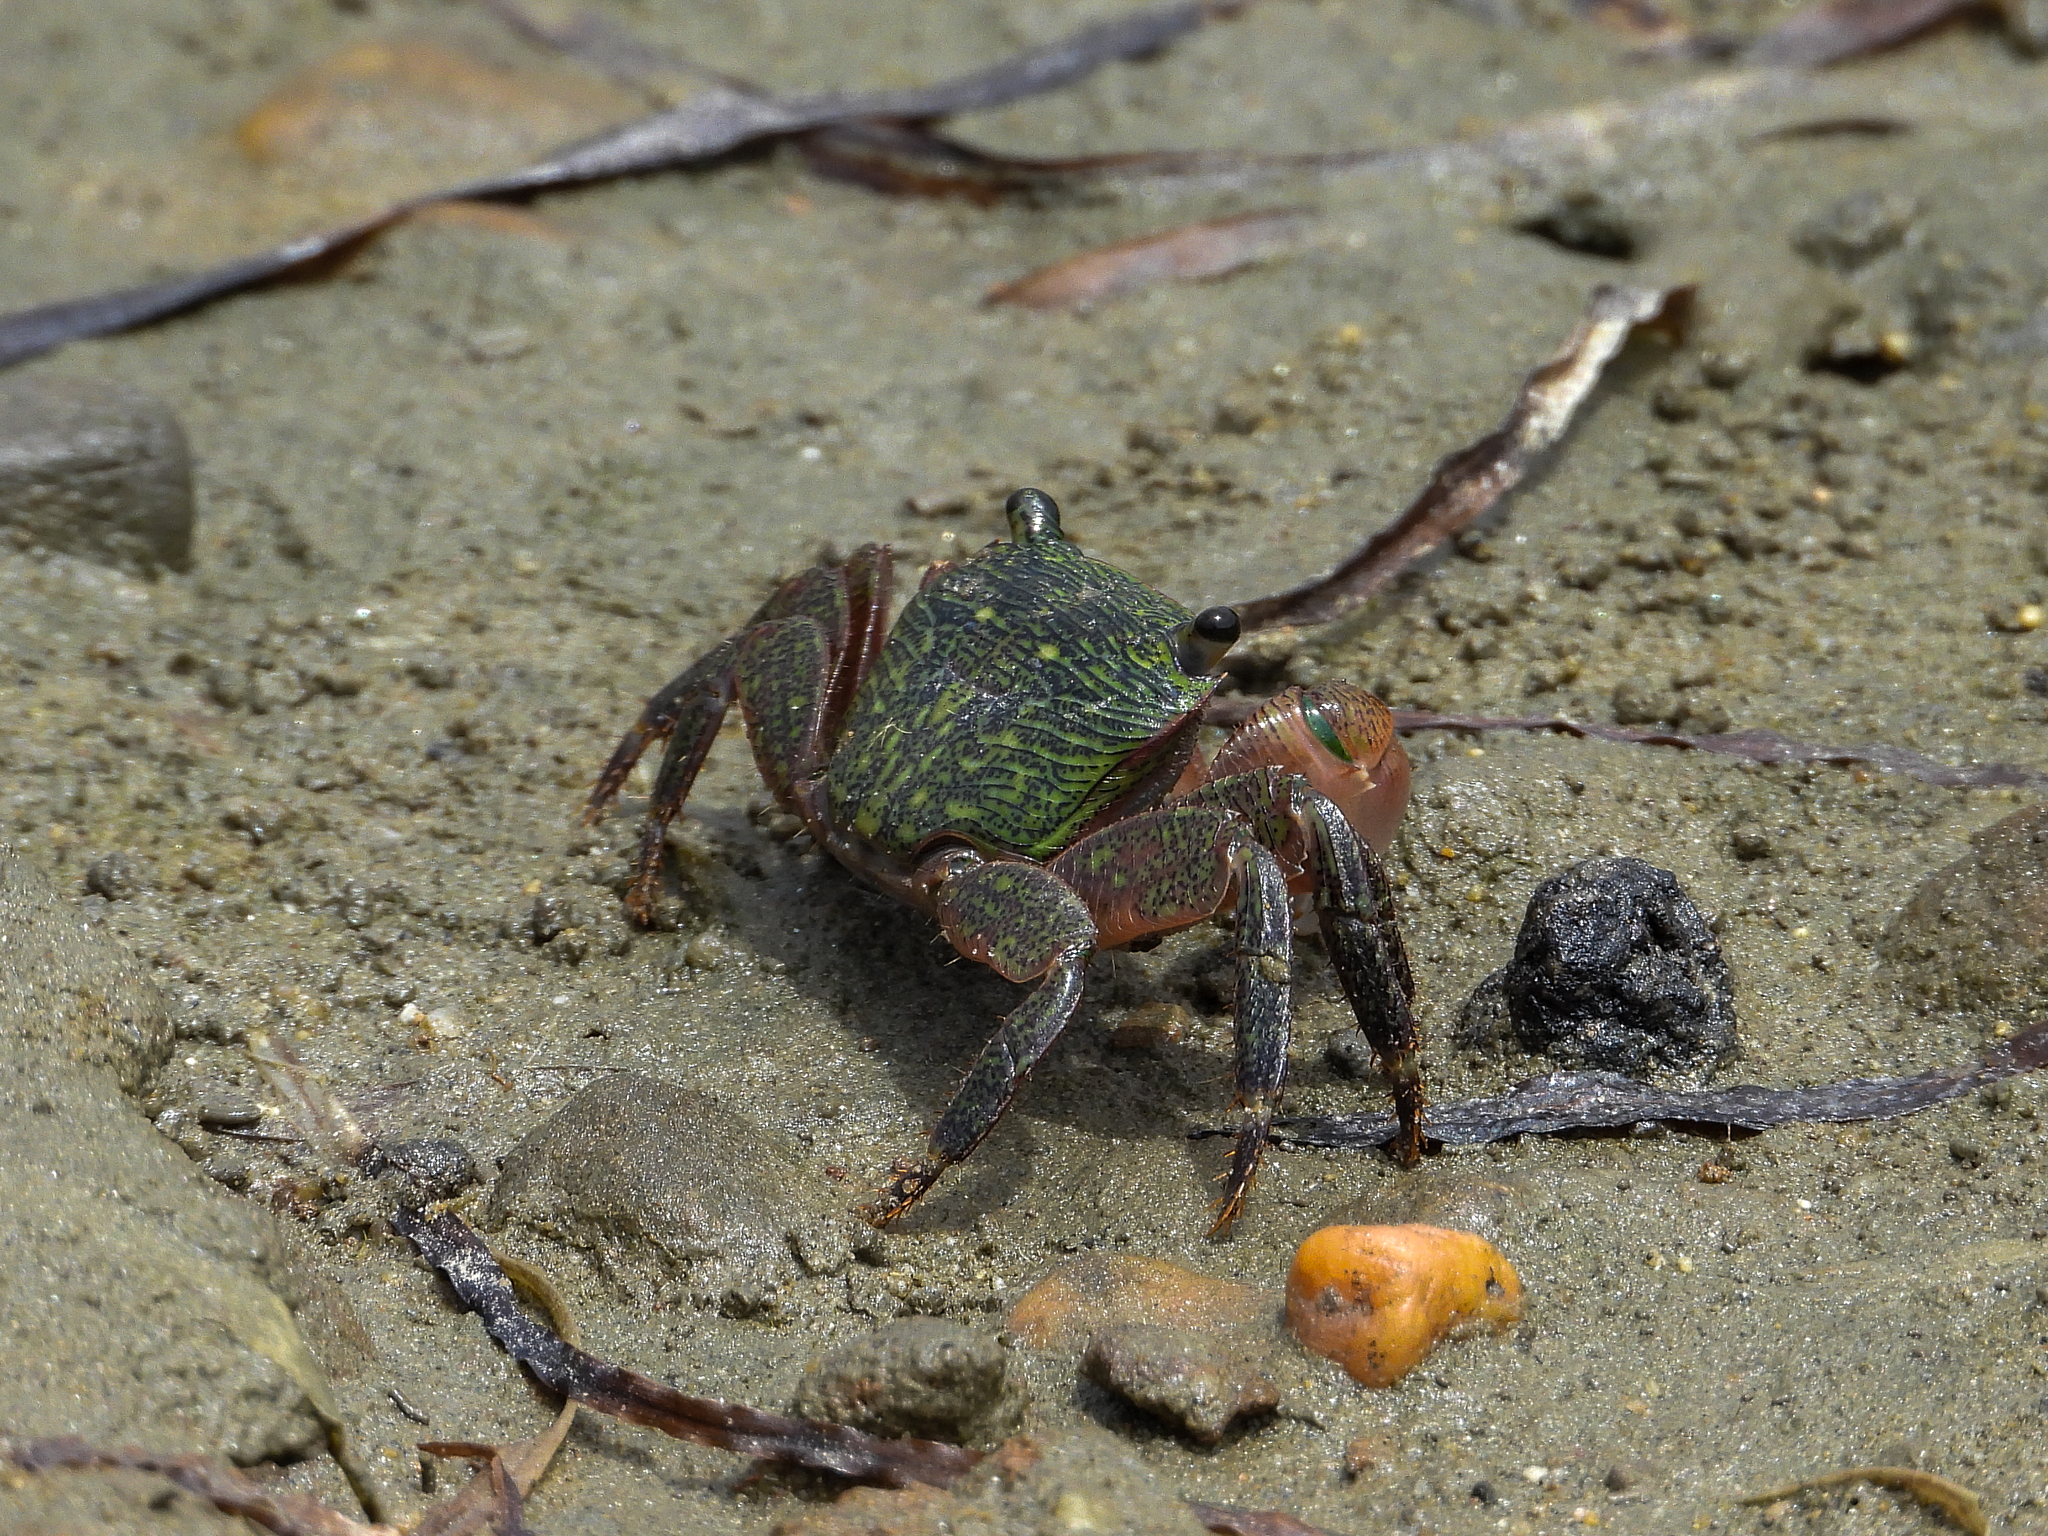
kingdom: Animalia
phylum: Arthropoda
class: Malacostraca
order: Decapoda
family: Grapsidae
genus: Pachygrapsus
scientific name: Pachygrapsus crassipes
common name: Striped shore crab
